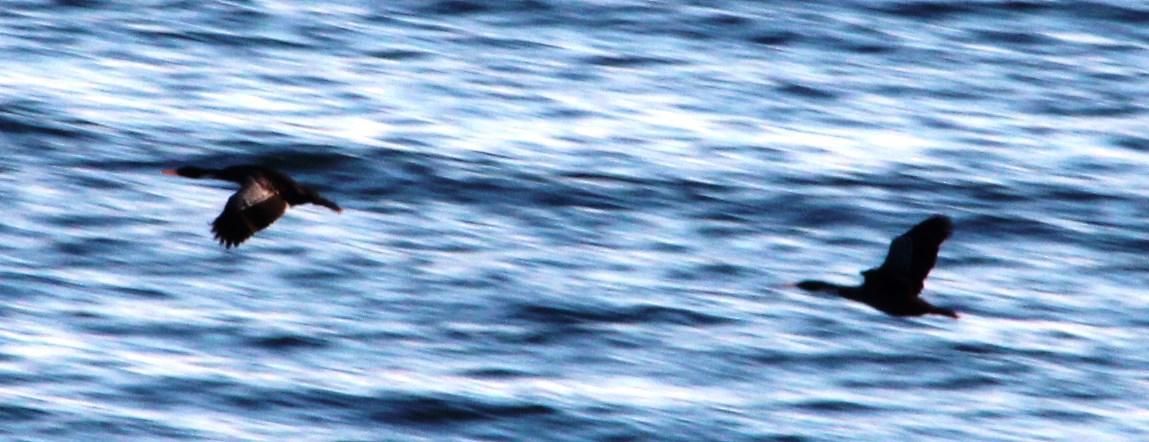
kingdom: Animalia
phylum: Chordata
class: Aves
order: Suliformes
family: Phalacrocoracidae
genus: Phalacrocorax
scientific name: Phalacrocorax gaimardi
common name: Red-legged cormorant
